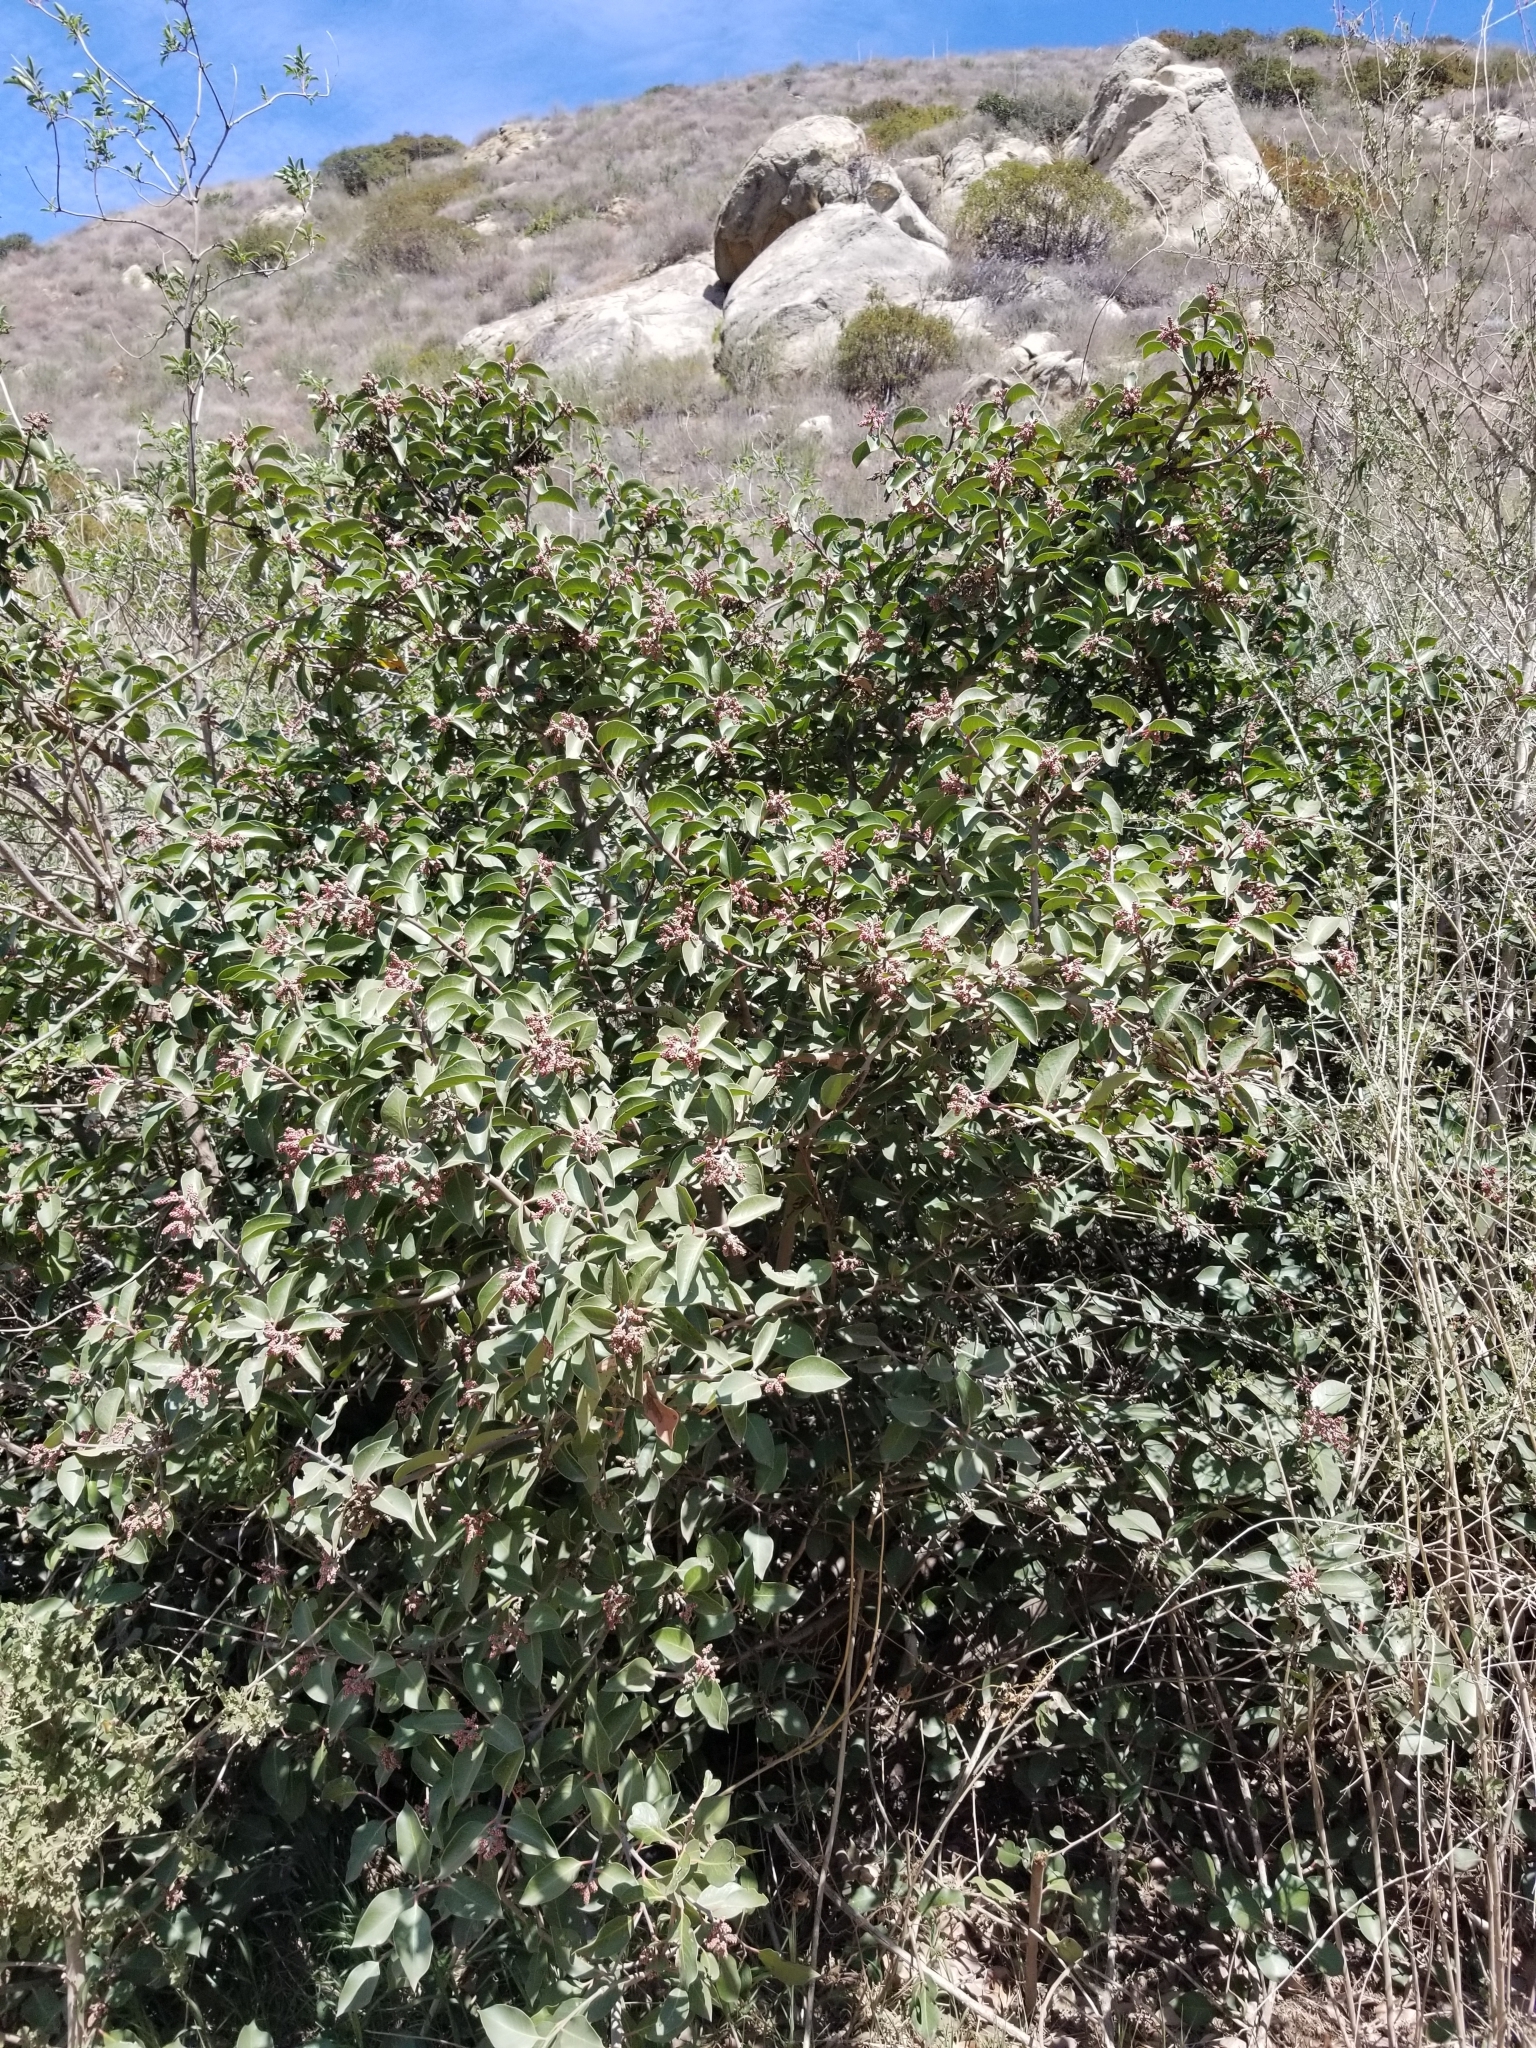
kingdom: Plantae
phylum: Tracheophyta
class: Magnoliopsida
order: Sapindales
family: Anacardiaceae
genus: Rhus
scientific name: Rhus ovata
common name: Sugar sumac
